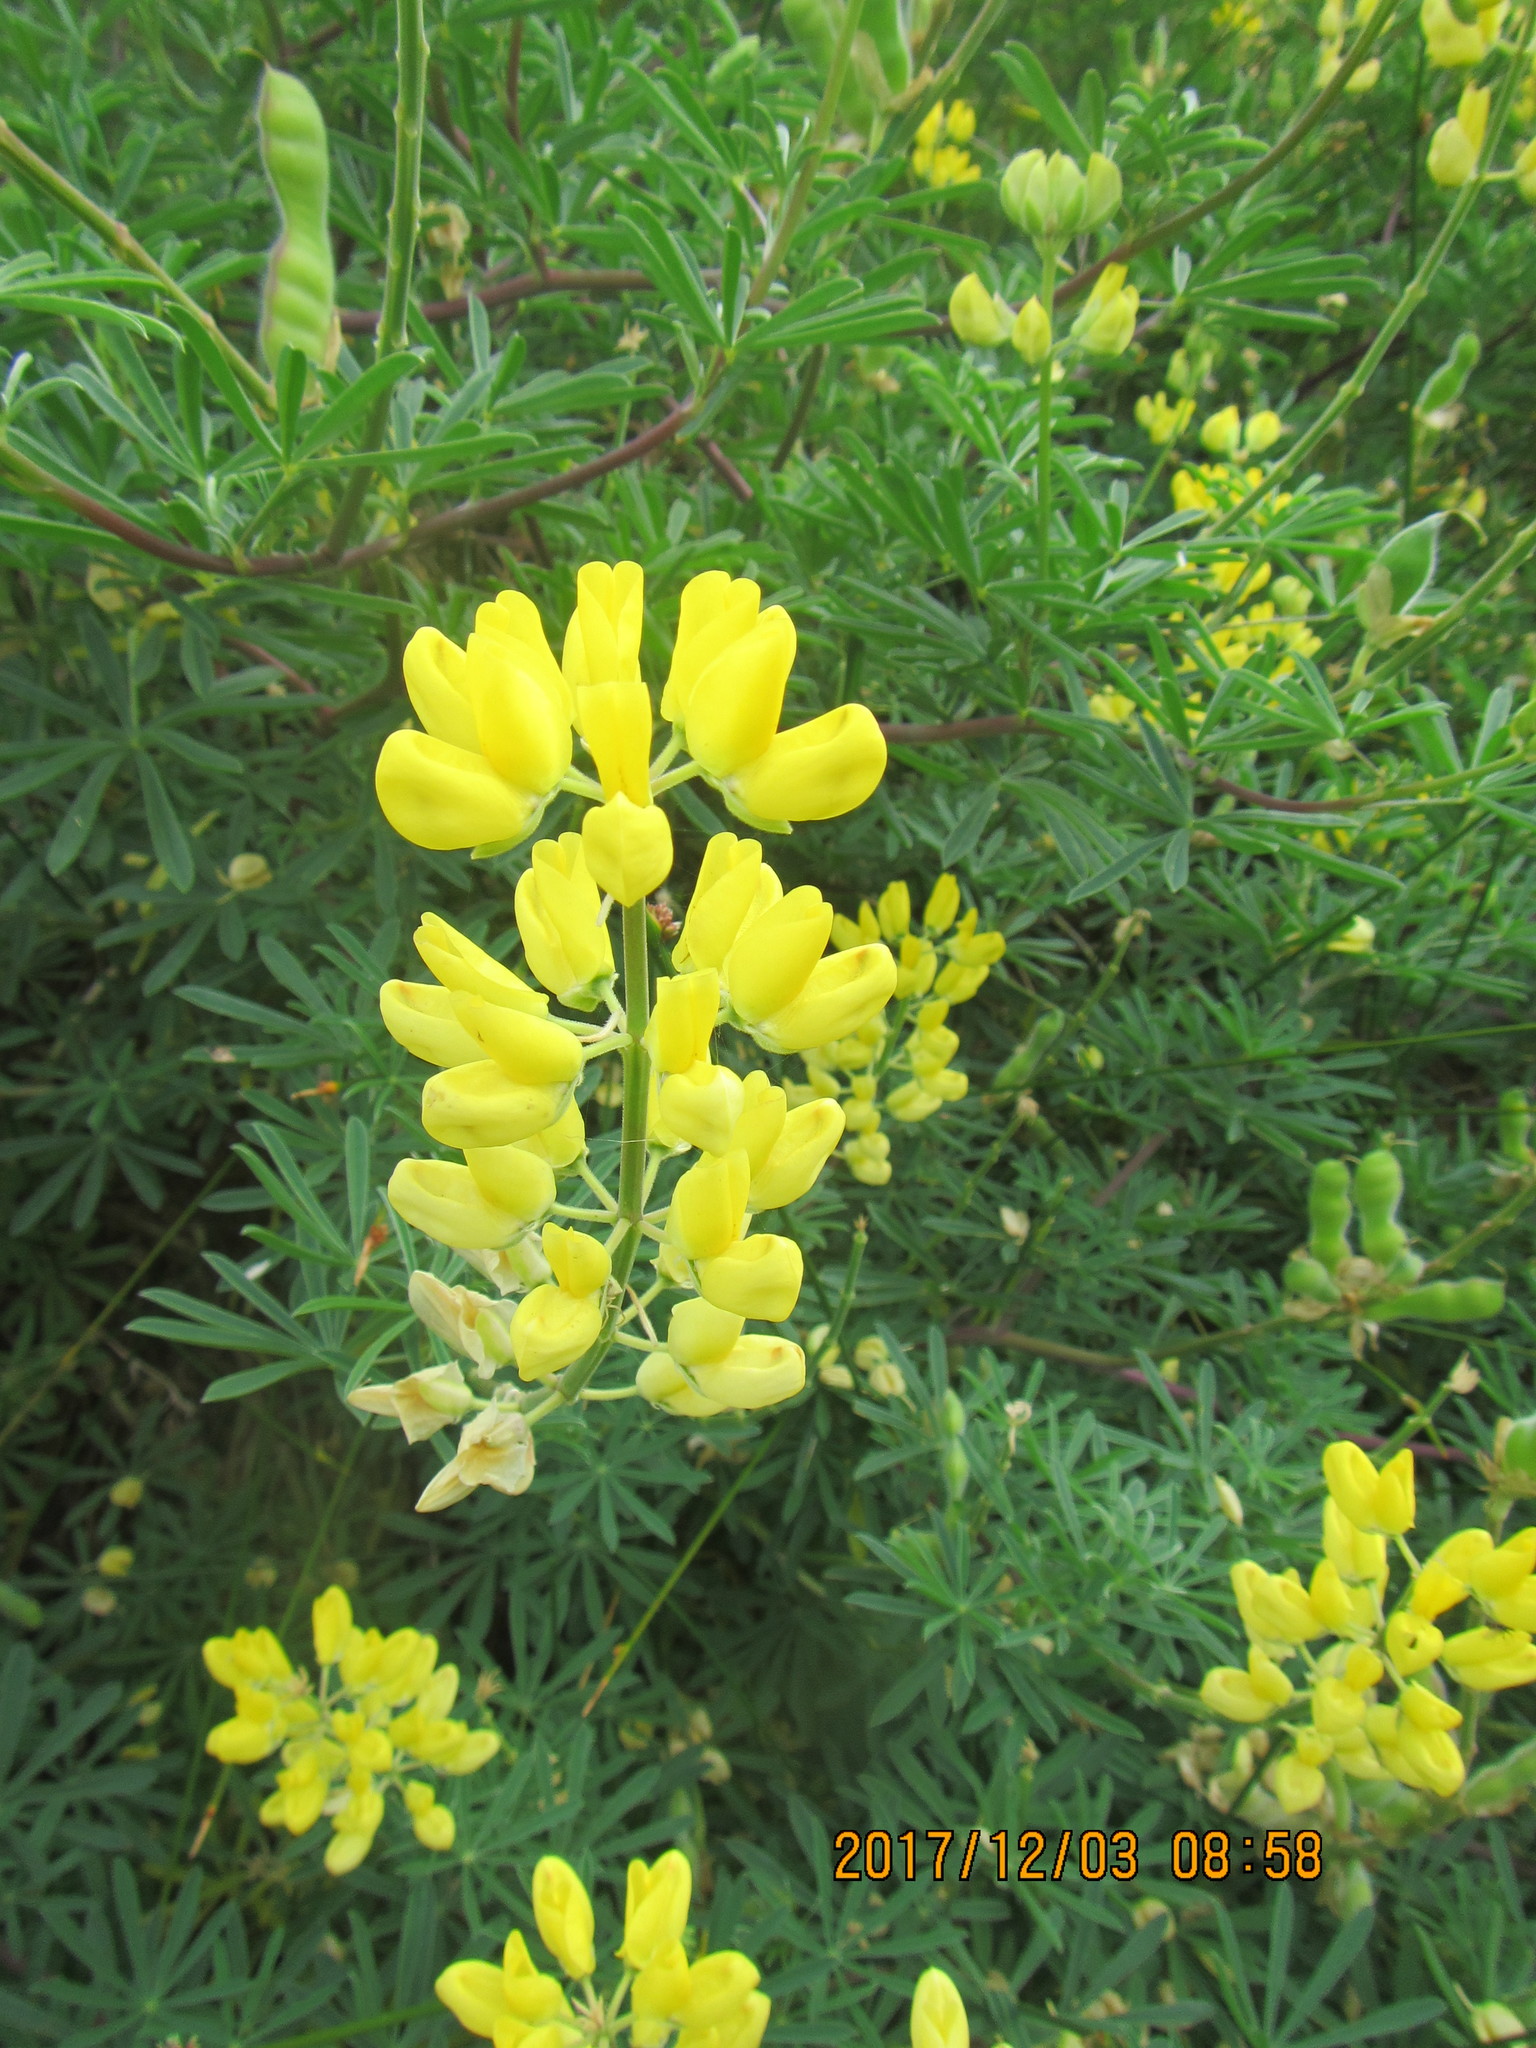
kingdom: Plantae
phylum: Tracheophyta
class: Magnoliopsida
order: Fabales
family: Fabaceae
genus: Lupinus
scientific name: Lupinus arboreus
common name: Yellow bush lupine
